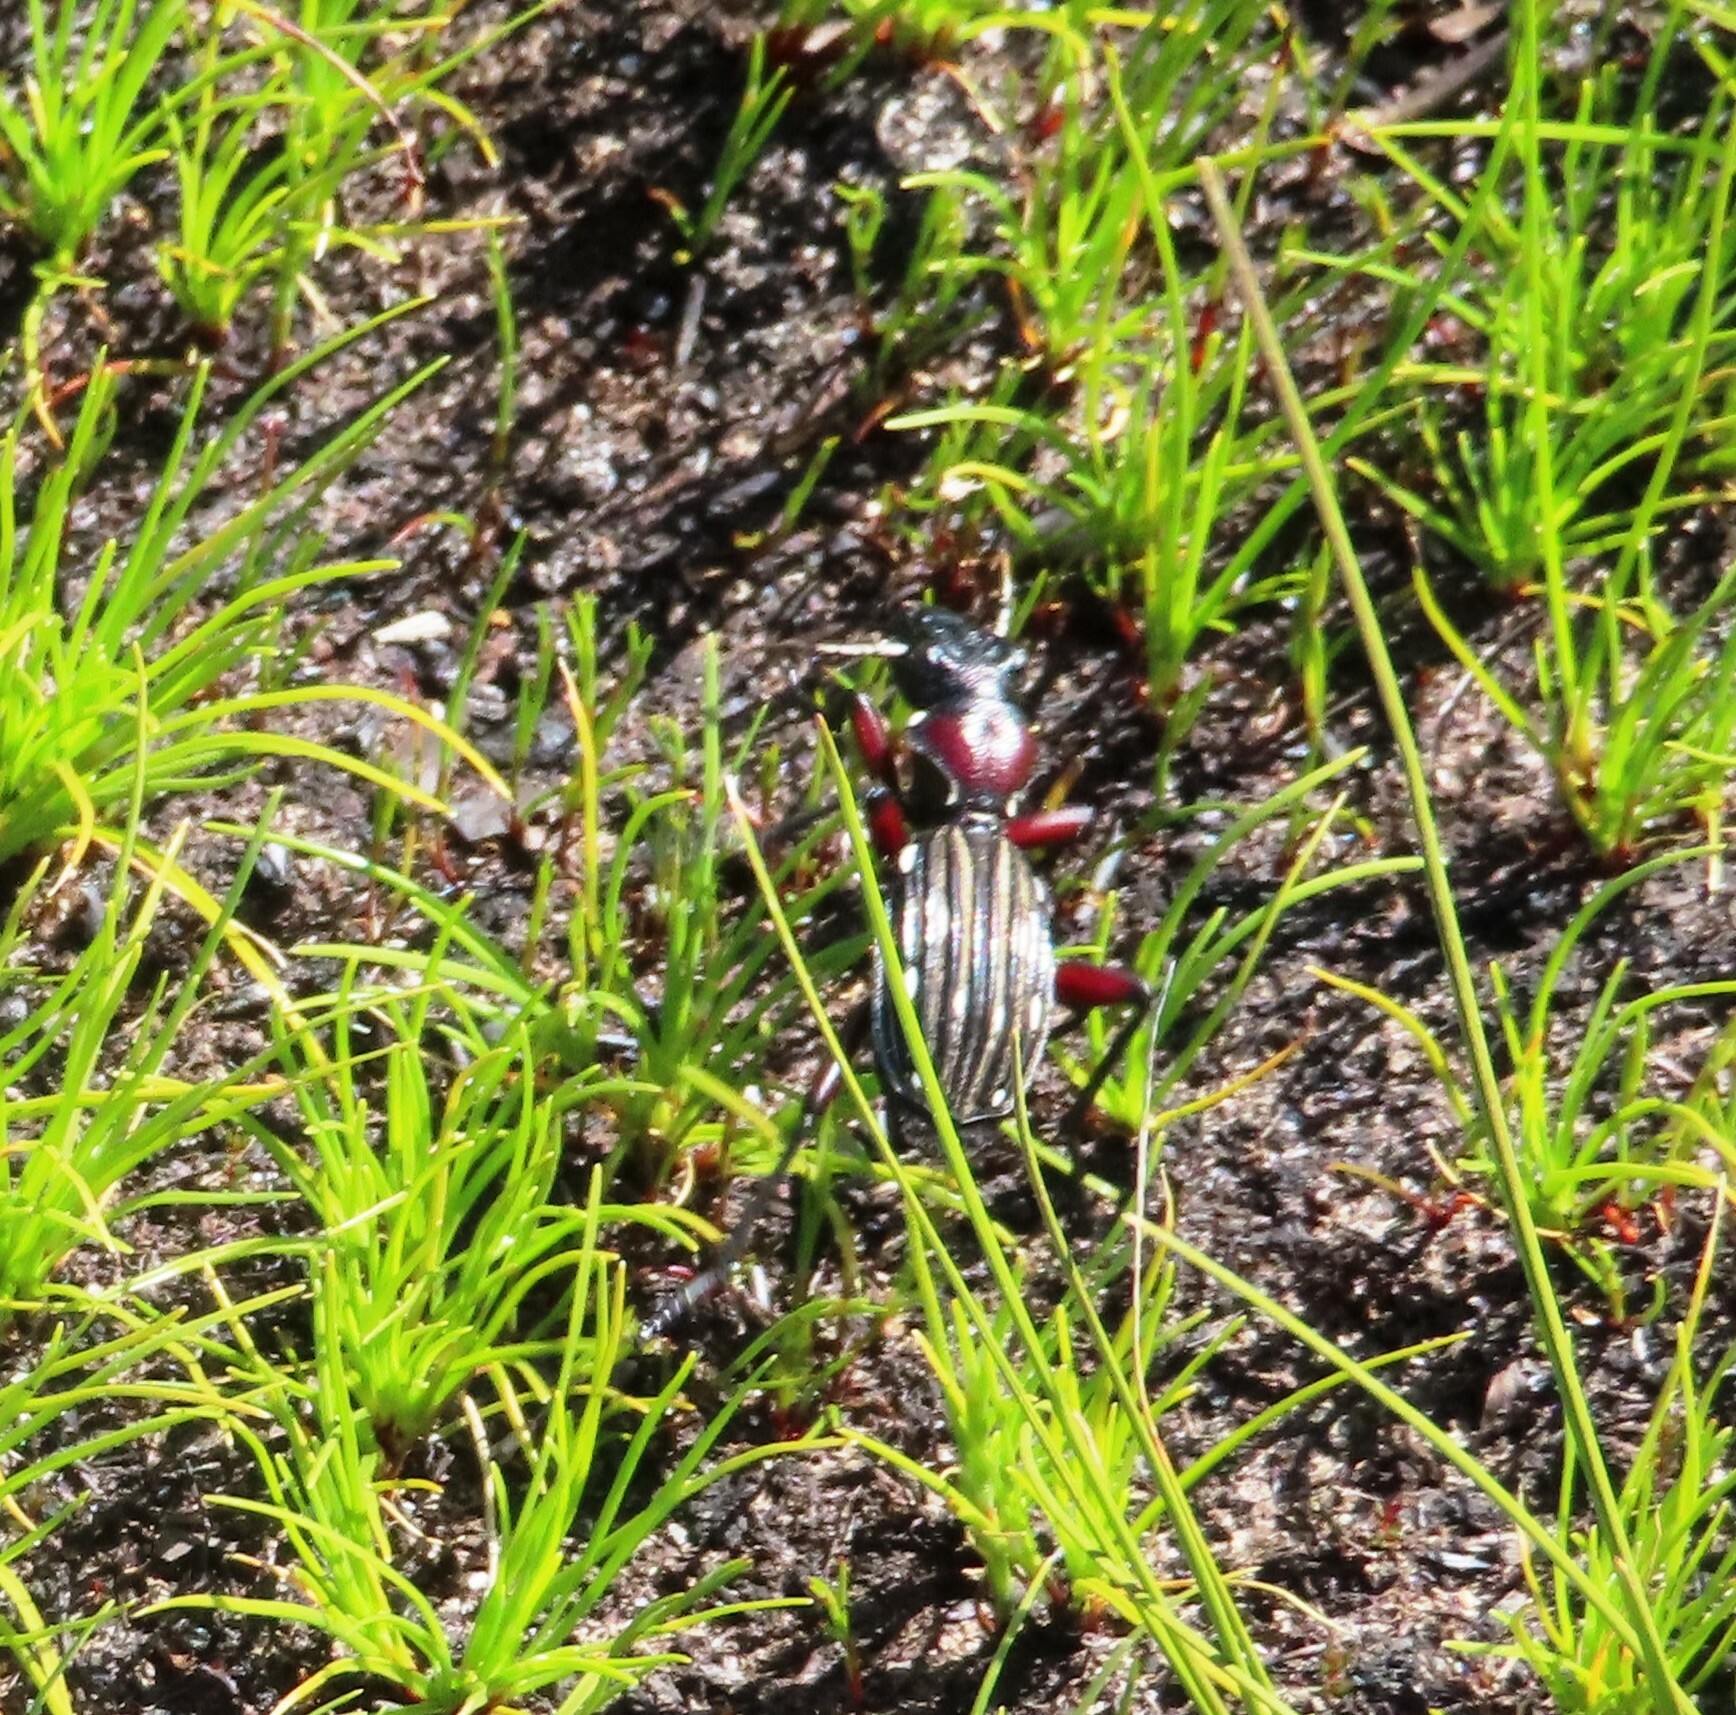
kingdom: Animalia
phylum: Arthropoda
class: Insecta
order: Coleoptera
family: Carabidae
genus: Anthia
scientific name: Anthia decemguttata
